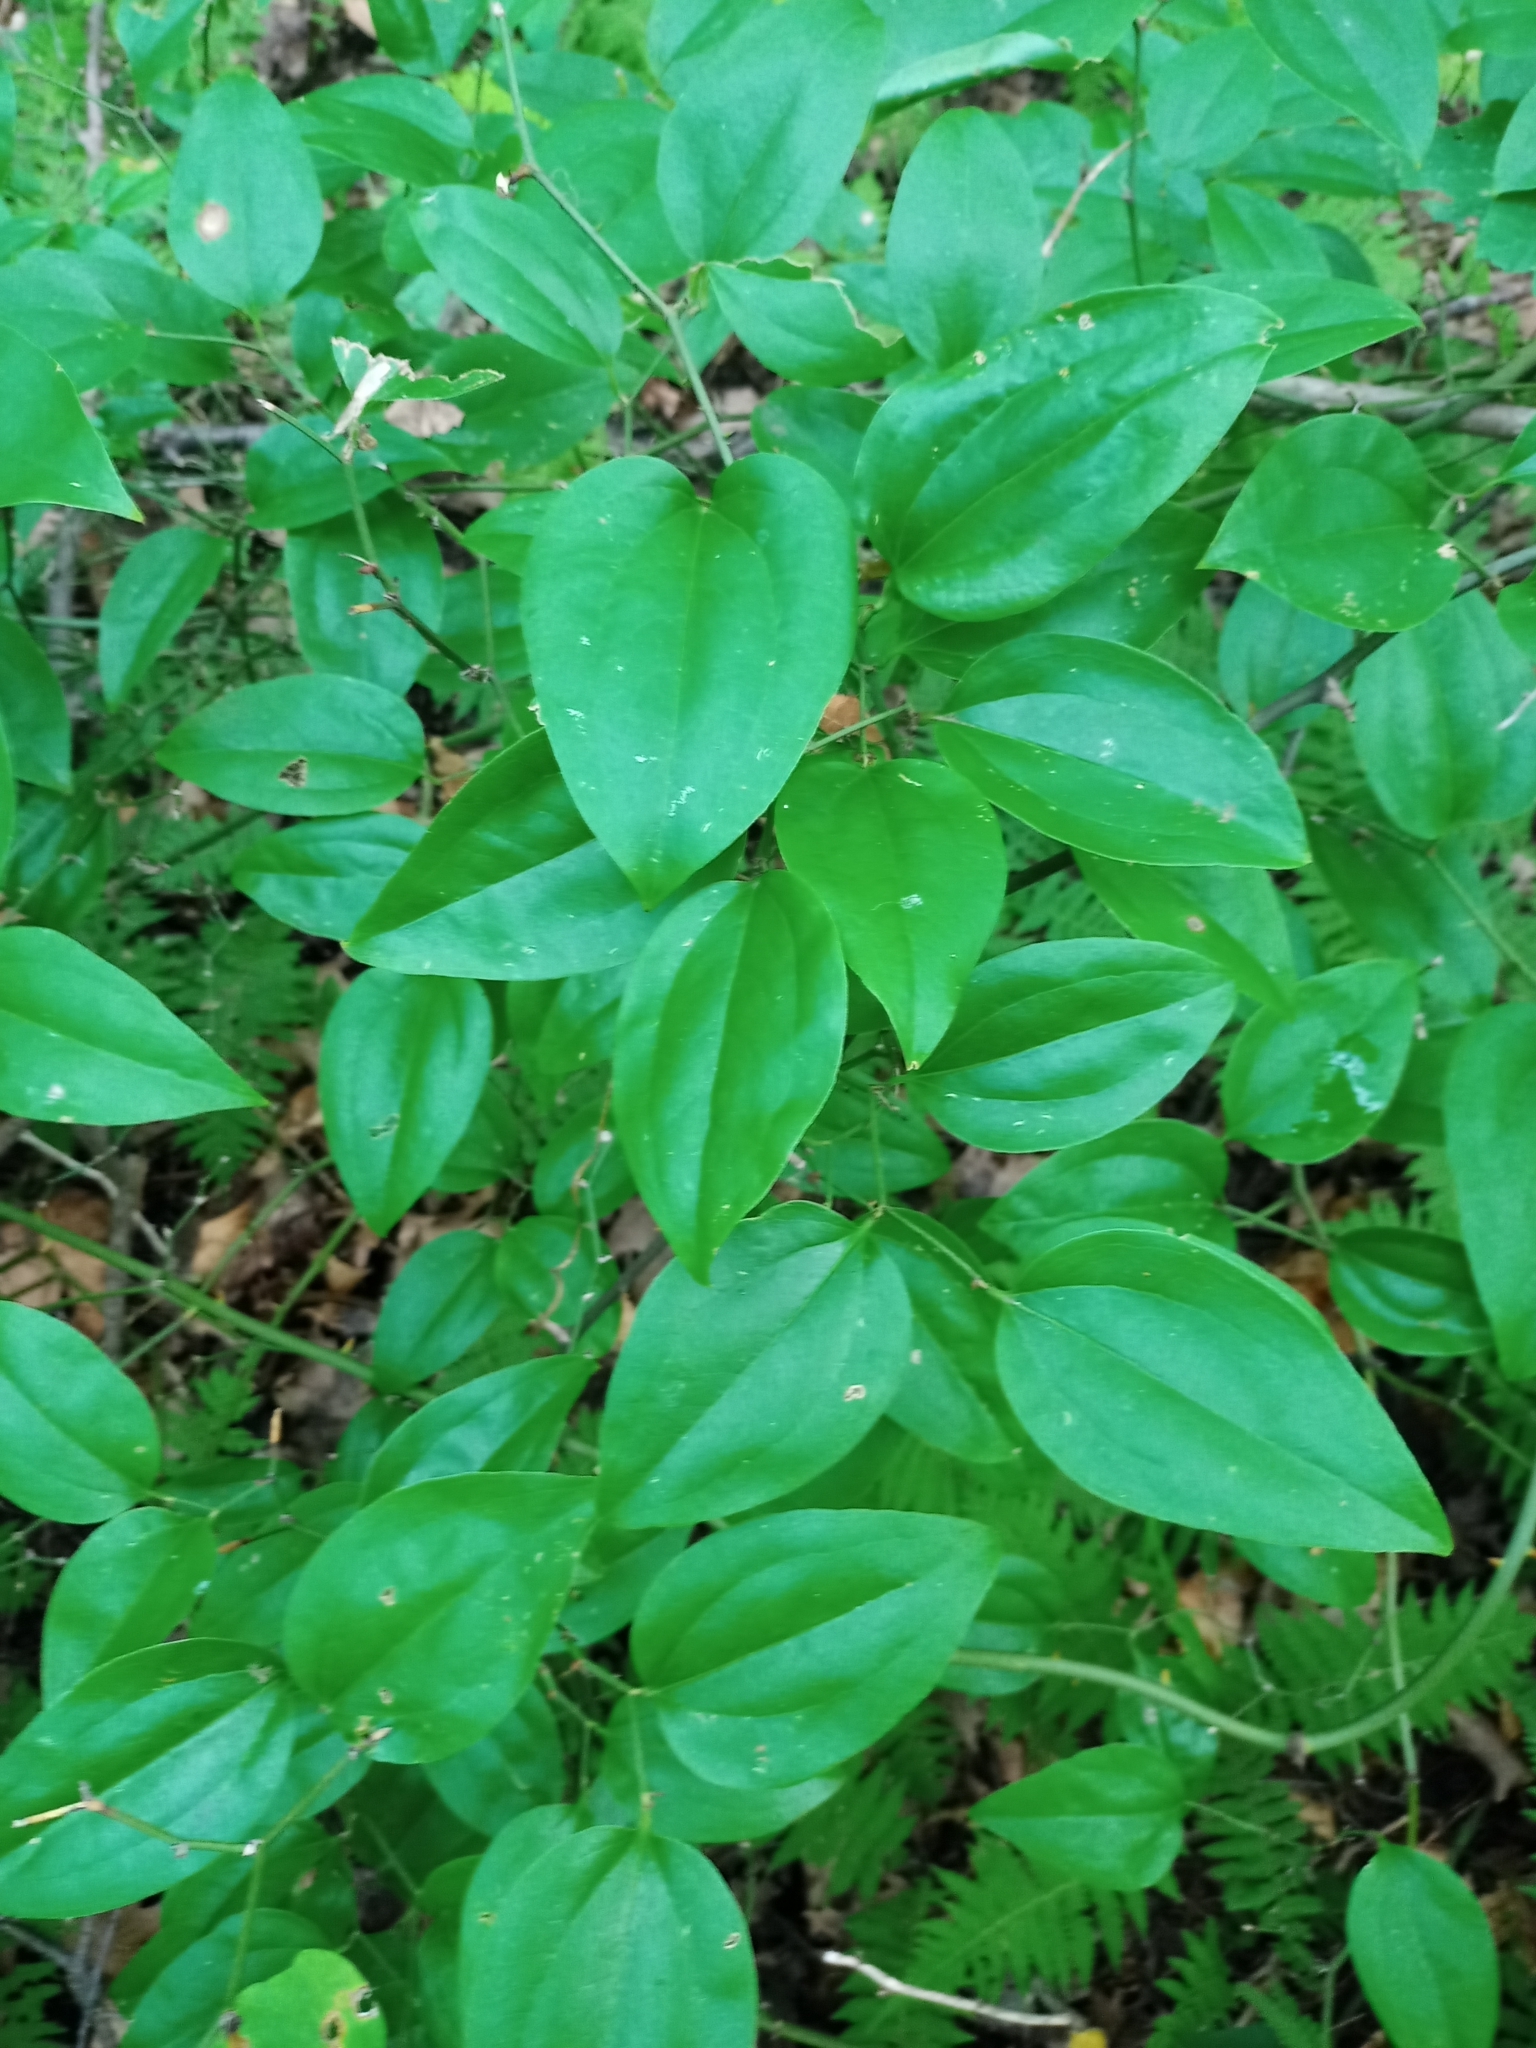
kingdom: Plantae
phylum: Tracheophyta
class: Liliopsida
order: Liliales
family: Smilacaceae
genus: Smilax
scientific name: Smilax rotundifolia
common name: Bullbriar
